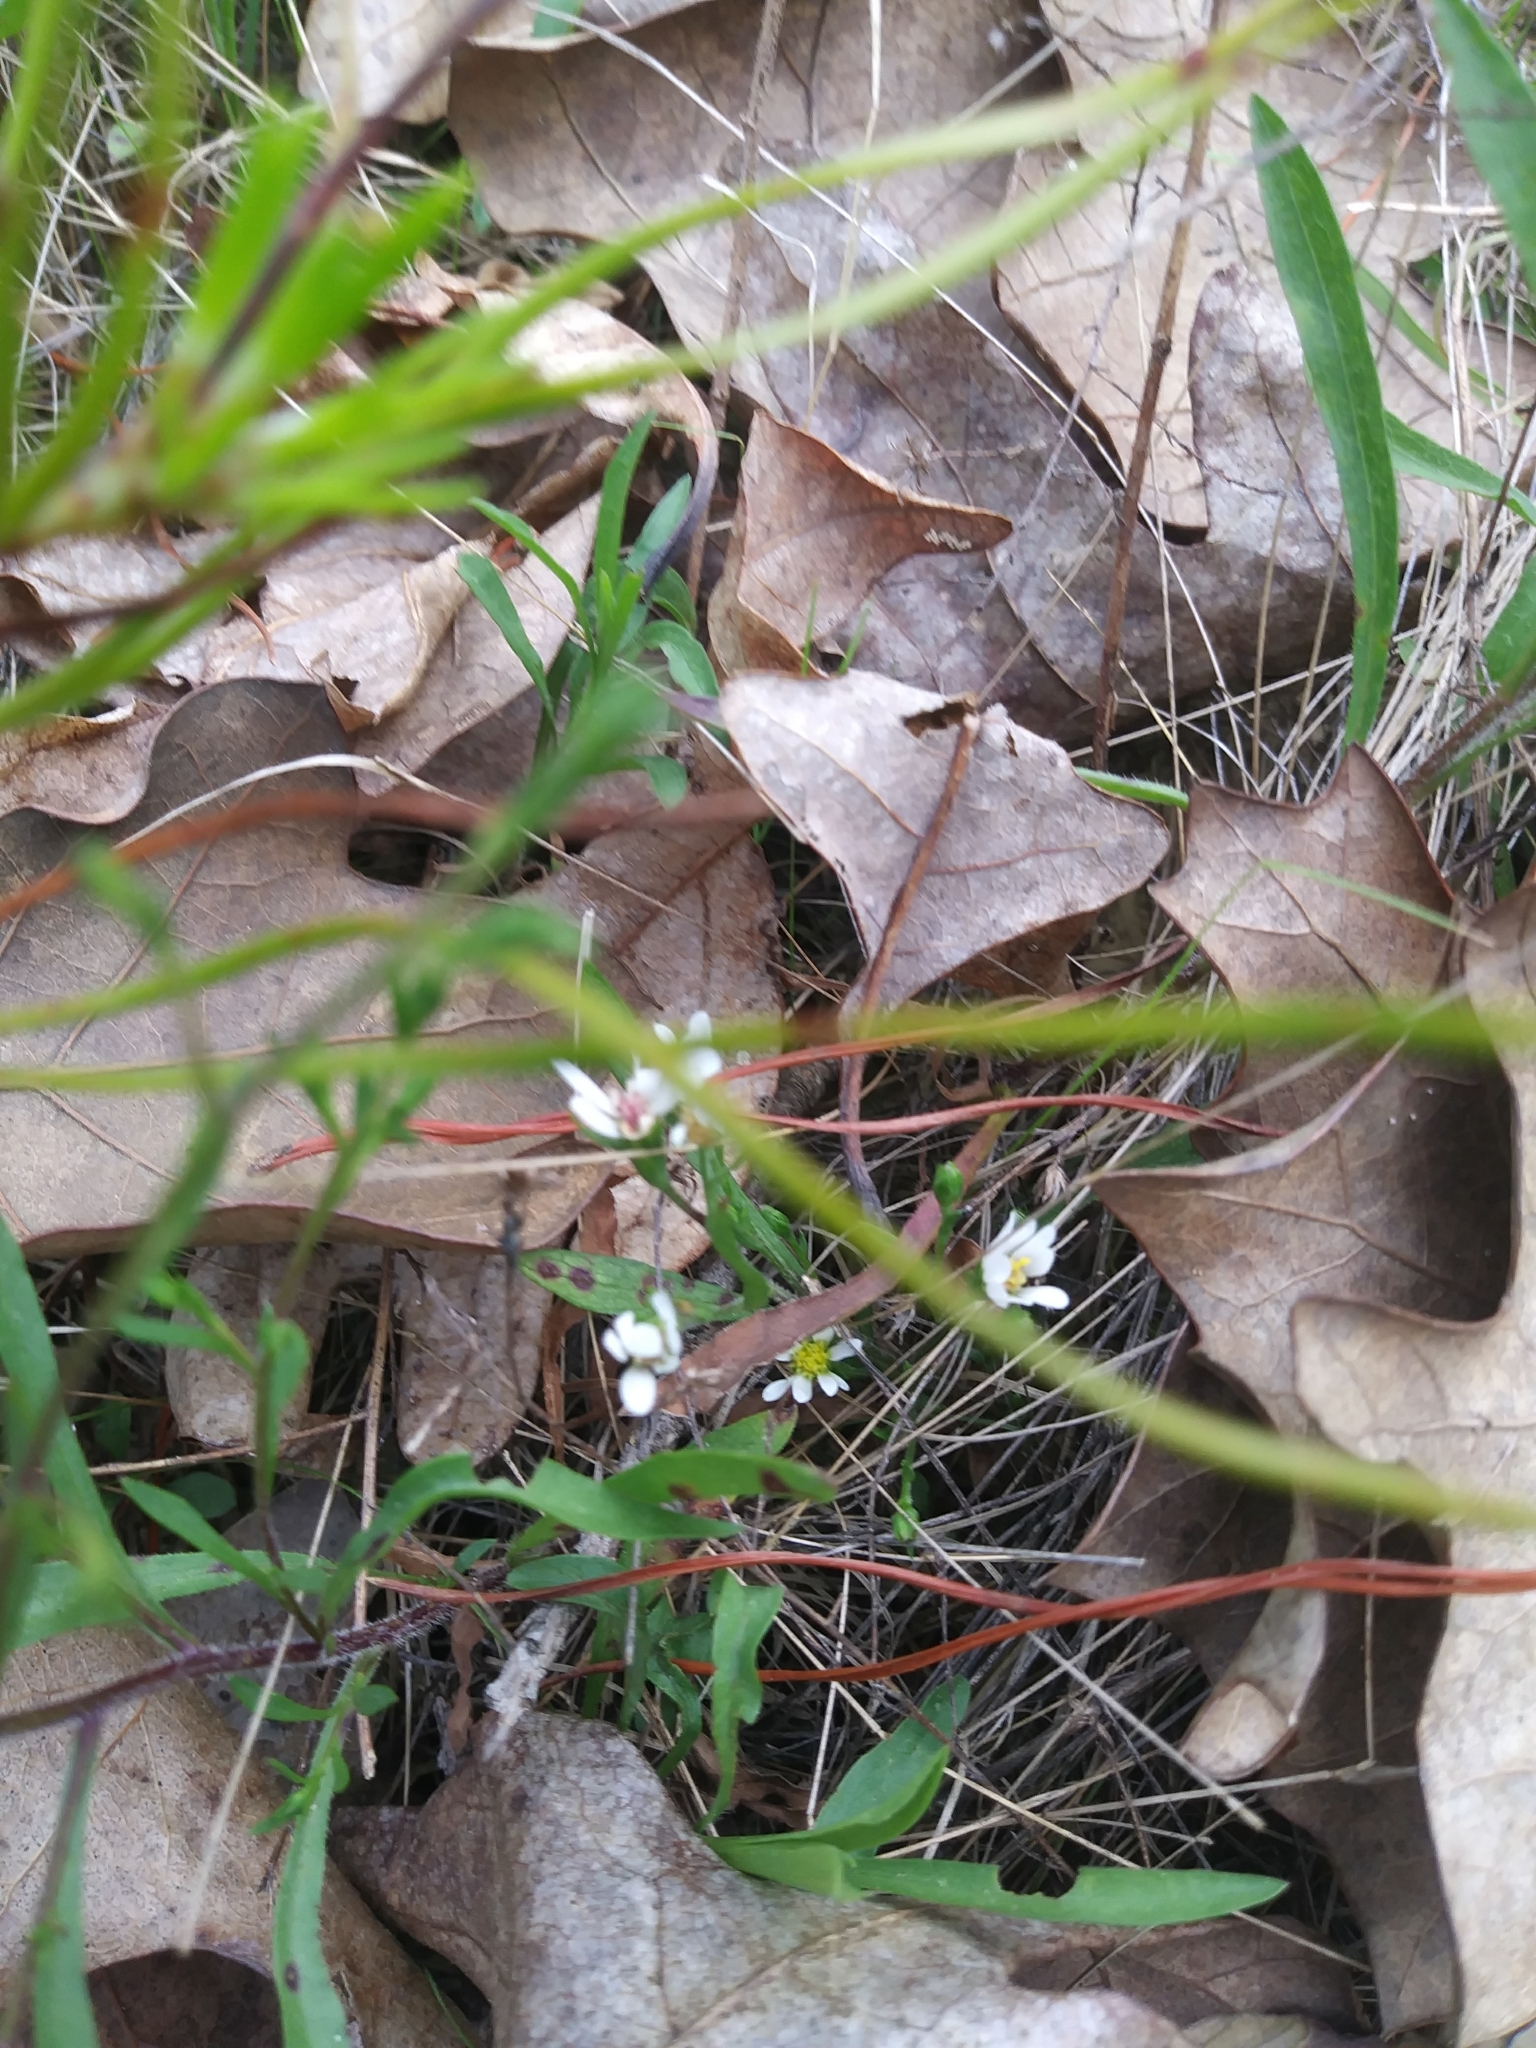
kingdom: Plantae
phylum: Tracheophyta
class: Magnoliopsida
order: Asterales
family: Asteraceae
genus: Symphyotrichum
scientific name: Symphyotrichum depauperatum
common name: Serpentine aster
